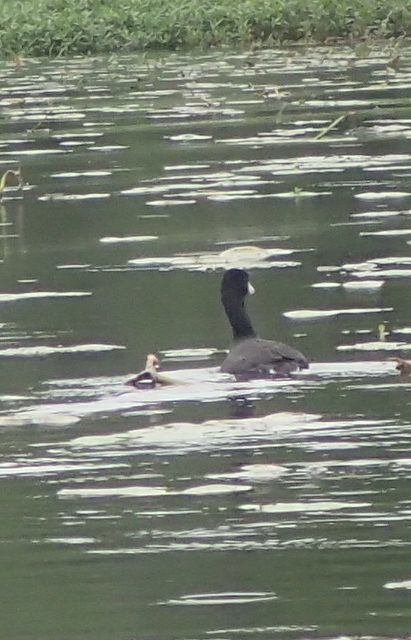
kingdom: Animalia
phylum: Chordata
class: Aves
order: Gruiformes
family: Rallidae
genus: Fulica
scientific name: Fulica americana
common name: American coot
